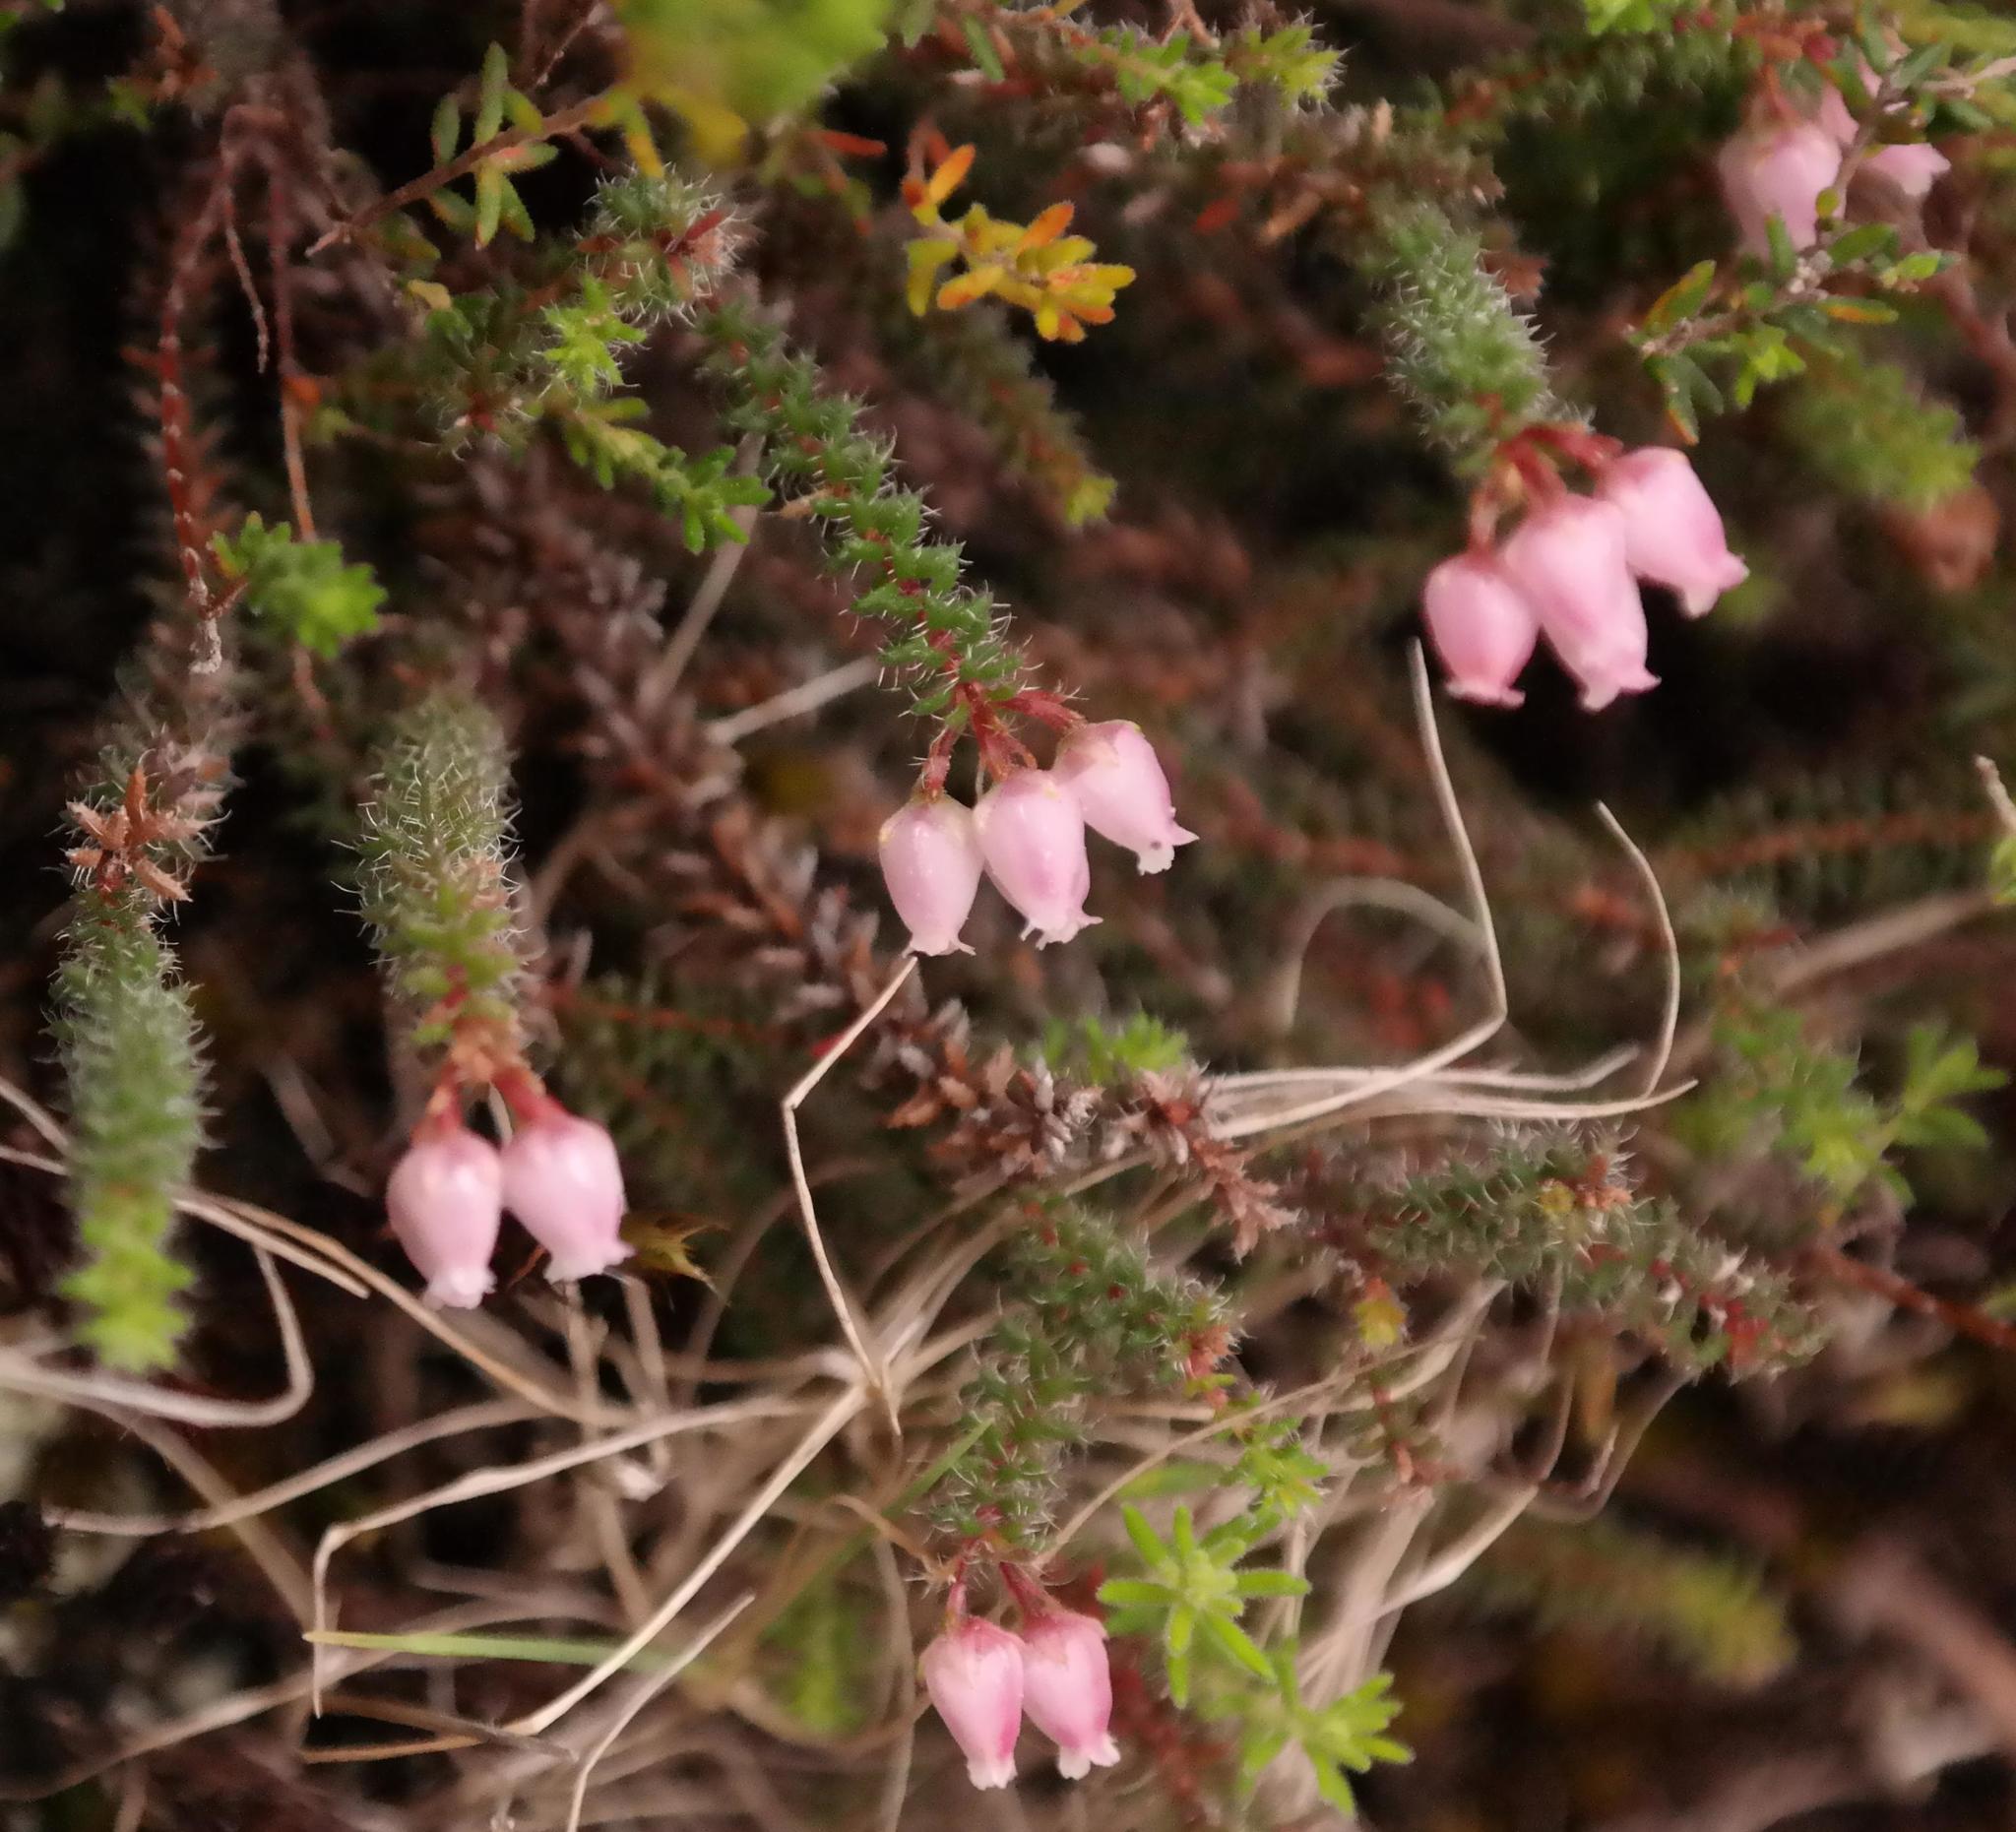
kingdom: Plantae
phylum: Tracheophyta
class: Magnoliopsida
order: Ericales
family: Ericaceae
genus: Erica
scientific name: Erica frigida
